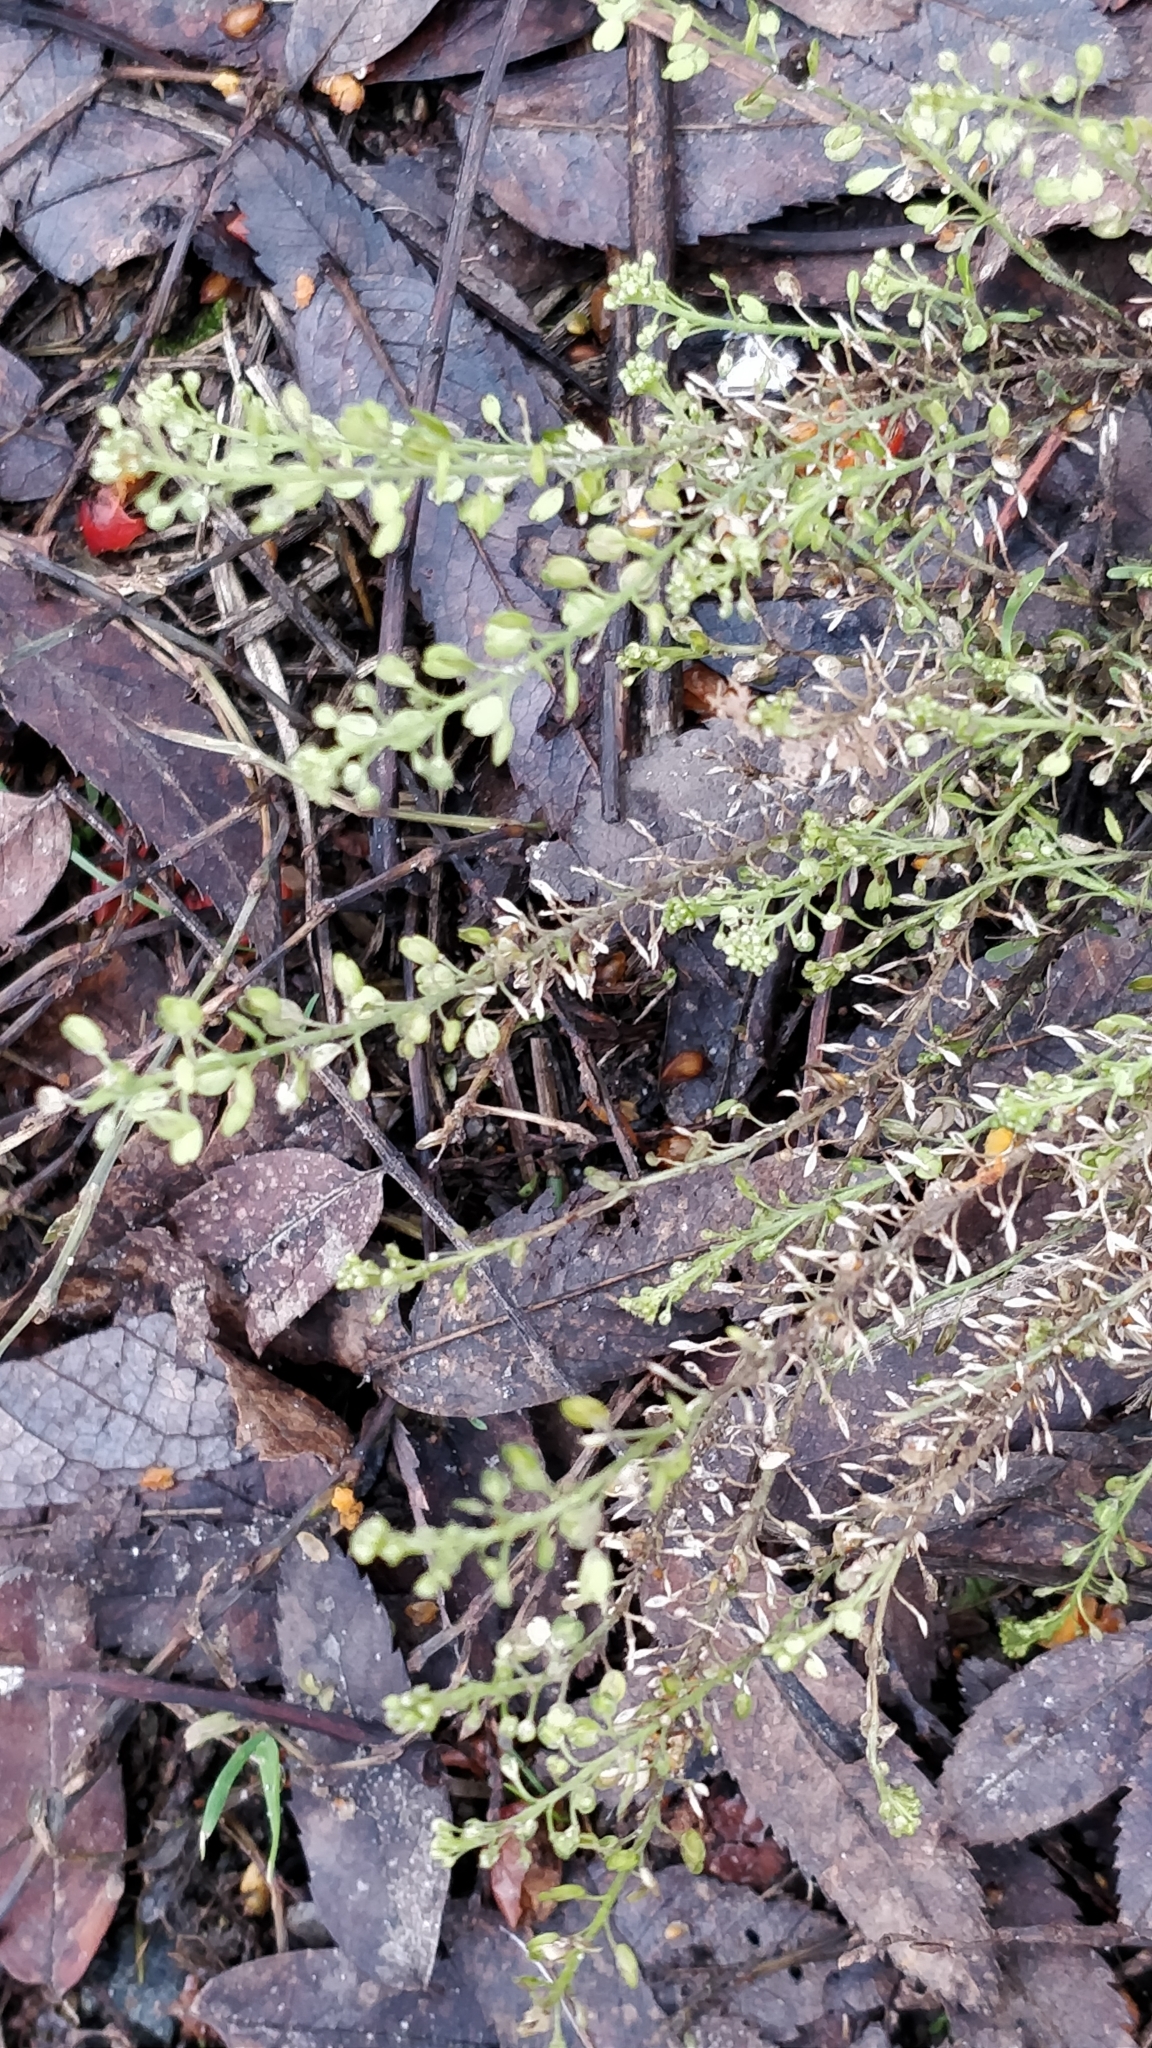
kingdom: Plantae
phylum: Tracheophyta
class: Magnoliopsida
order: Brassicales
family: Brassicaceae
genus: Lepidium
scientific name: Lepidium densiflorum
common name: Miner's pepperwort
